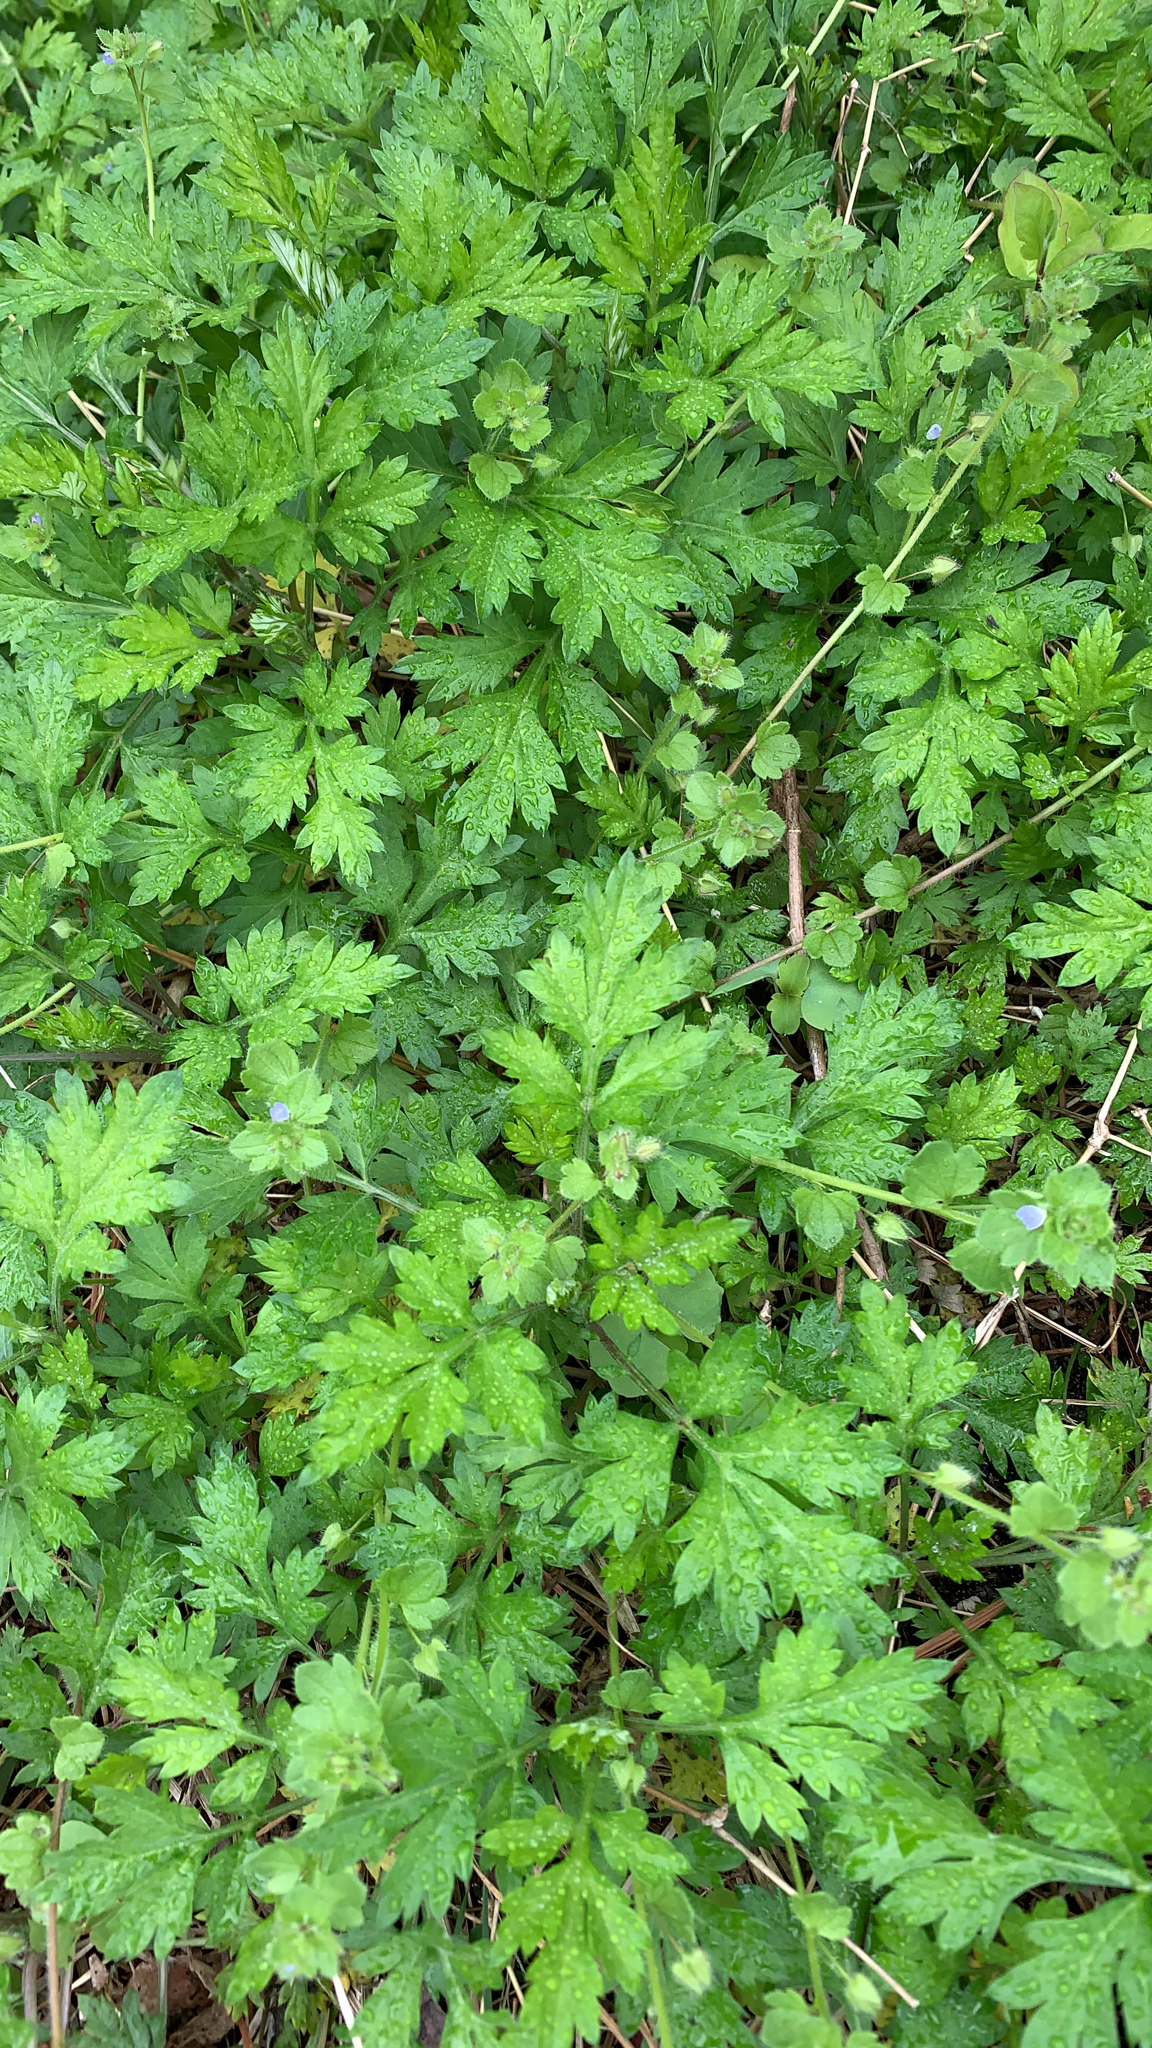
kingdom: Plantae
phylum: Tracheophyta
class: Magnoliopsida
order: Asterales
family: Asteraceae
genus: Artemisia
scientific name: Artemisia vulgaris
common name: Mugwort
